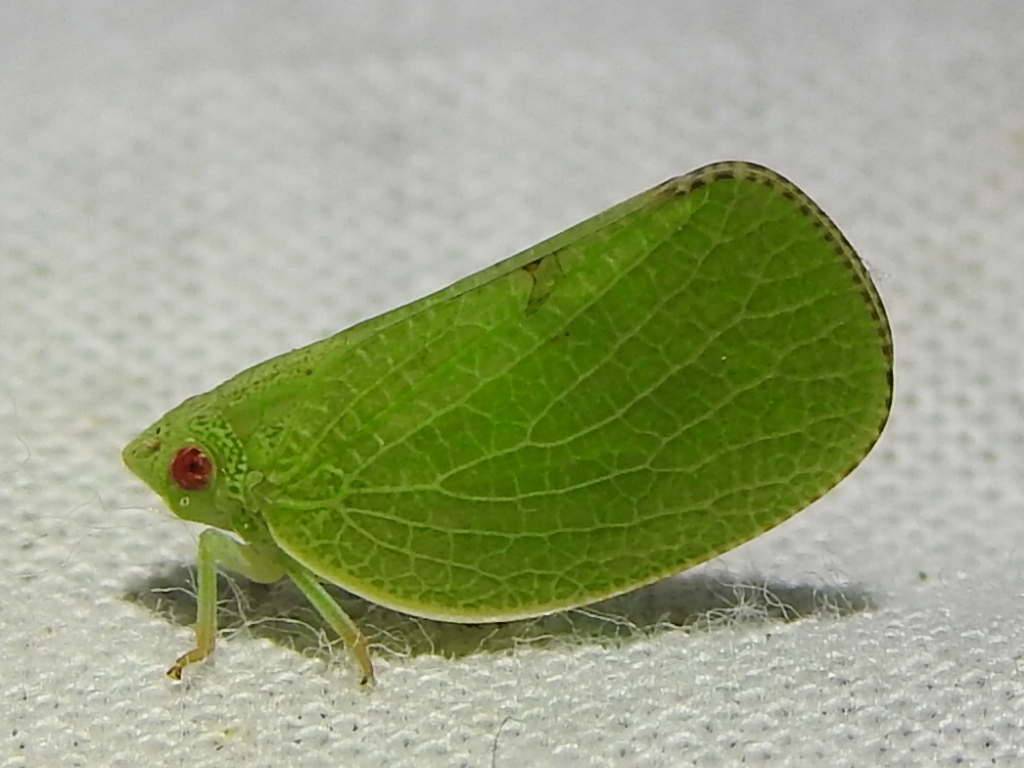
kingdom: Animalia
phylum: Arthropoda
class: Insecta
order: Hemiptera
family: Acanaloniidae
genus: Acanalonia
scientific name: Acanalonia conica
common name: Green cone-headed planthopper
